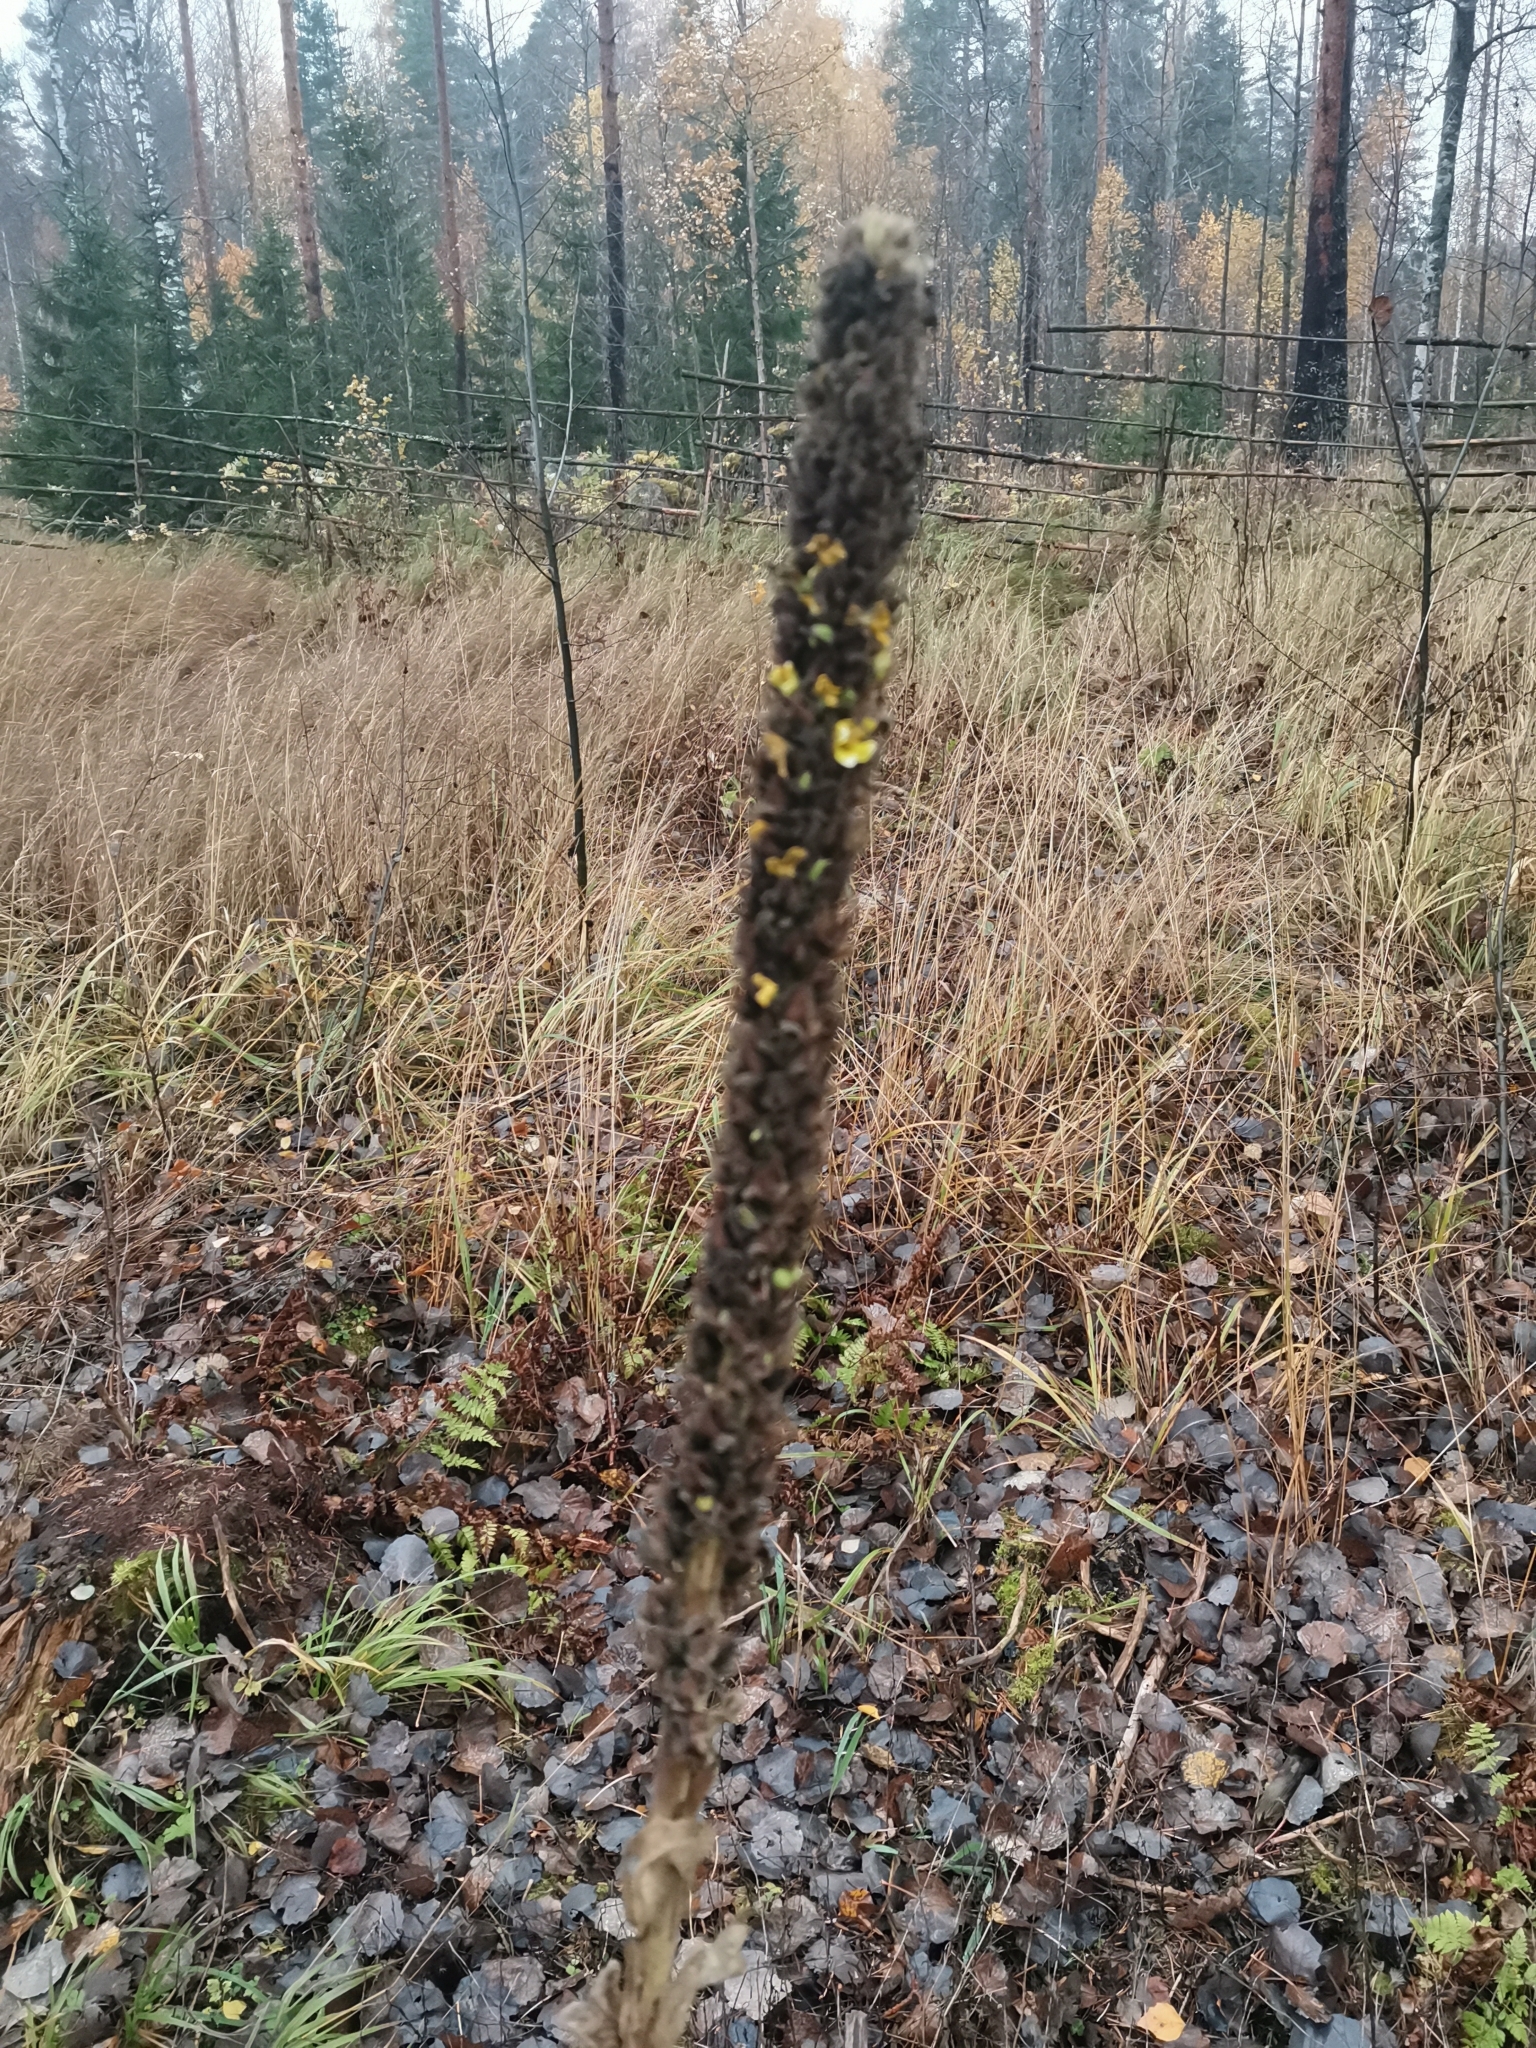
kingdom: Plantae
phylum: Tracheophyta
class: Magnoliopsida
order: Lamiales
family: Scrophulariaceae
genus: Verbascum
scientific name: Verbascum thapsus
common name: Common mullein
